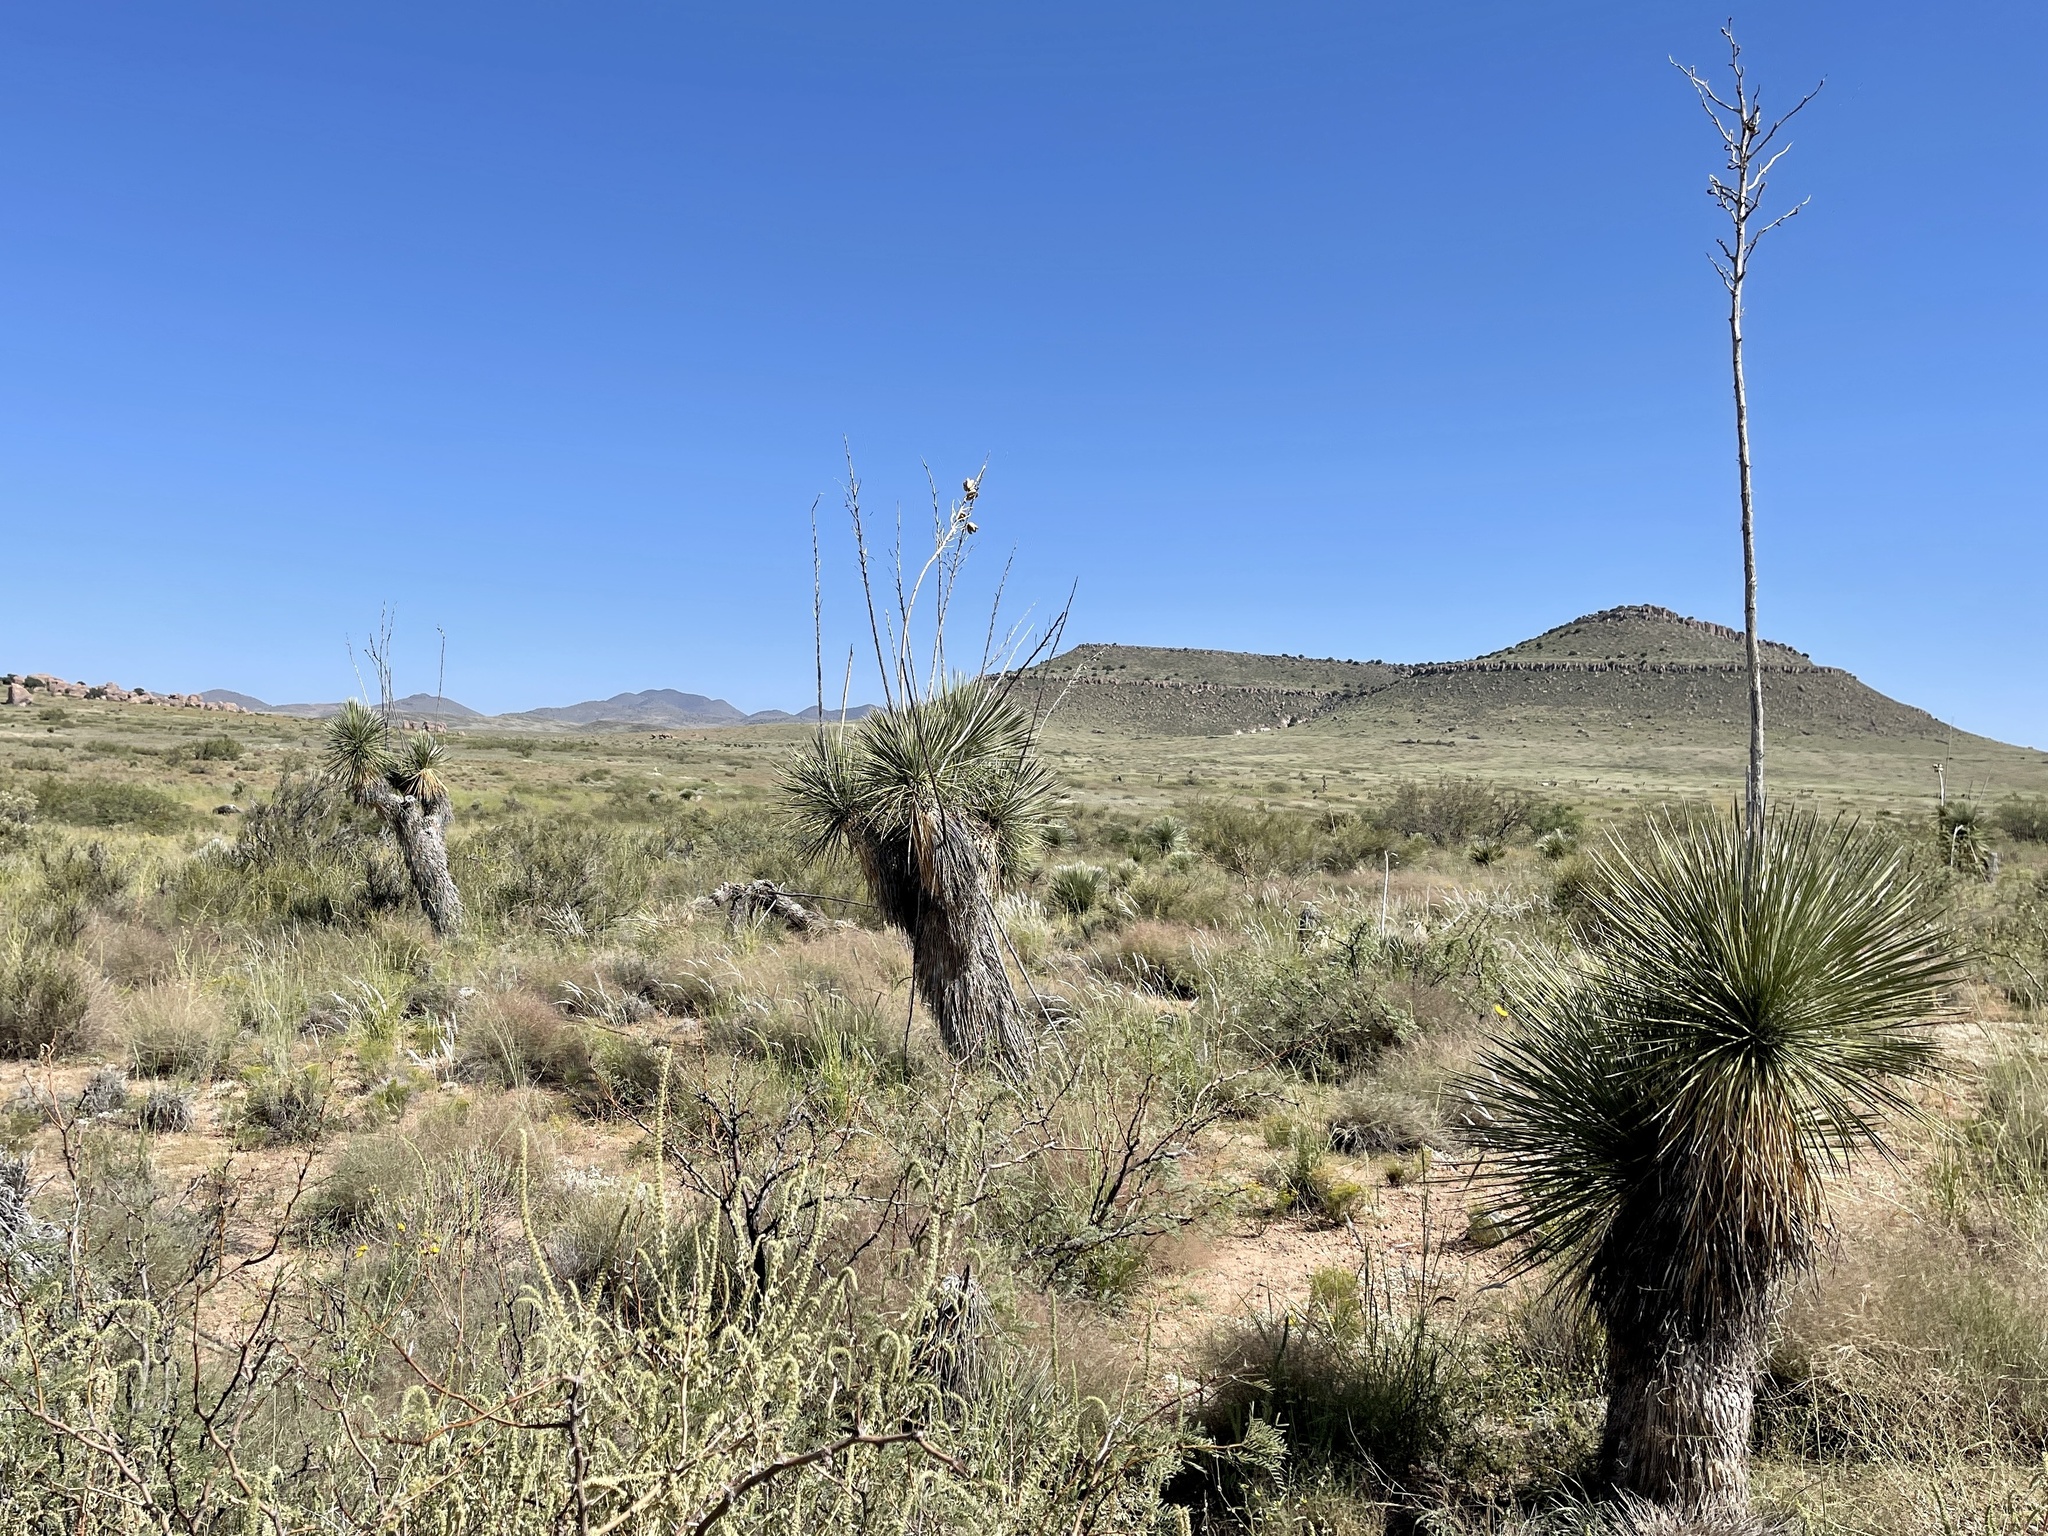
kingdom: Plantae
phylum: Tracheophyta
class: Liliopsida
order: Asparagales
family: Asparagaceae
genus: Yucca
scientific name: Yucca elata
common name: Palmella
